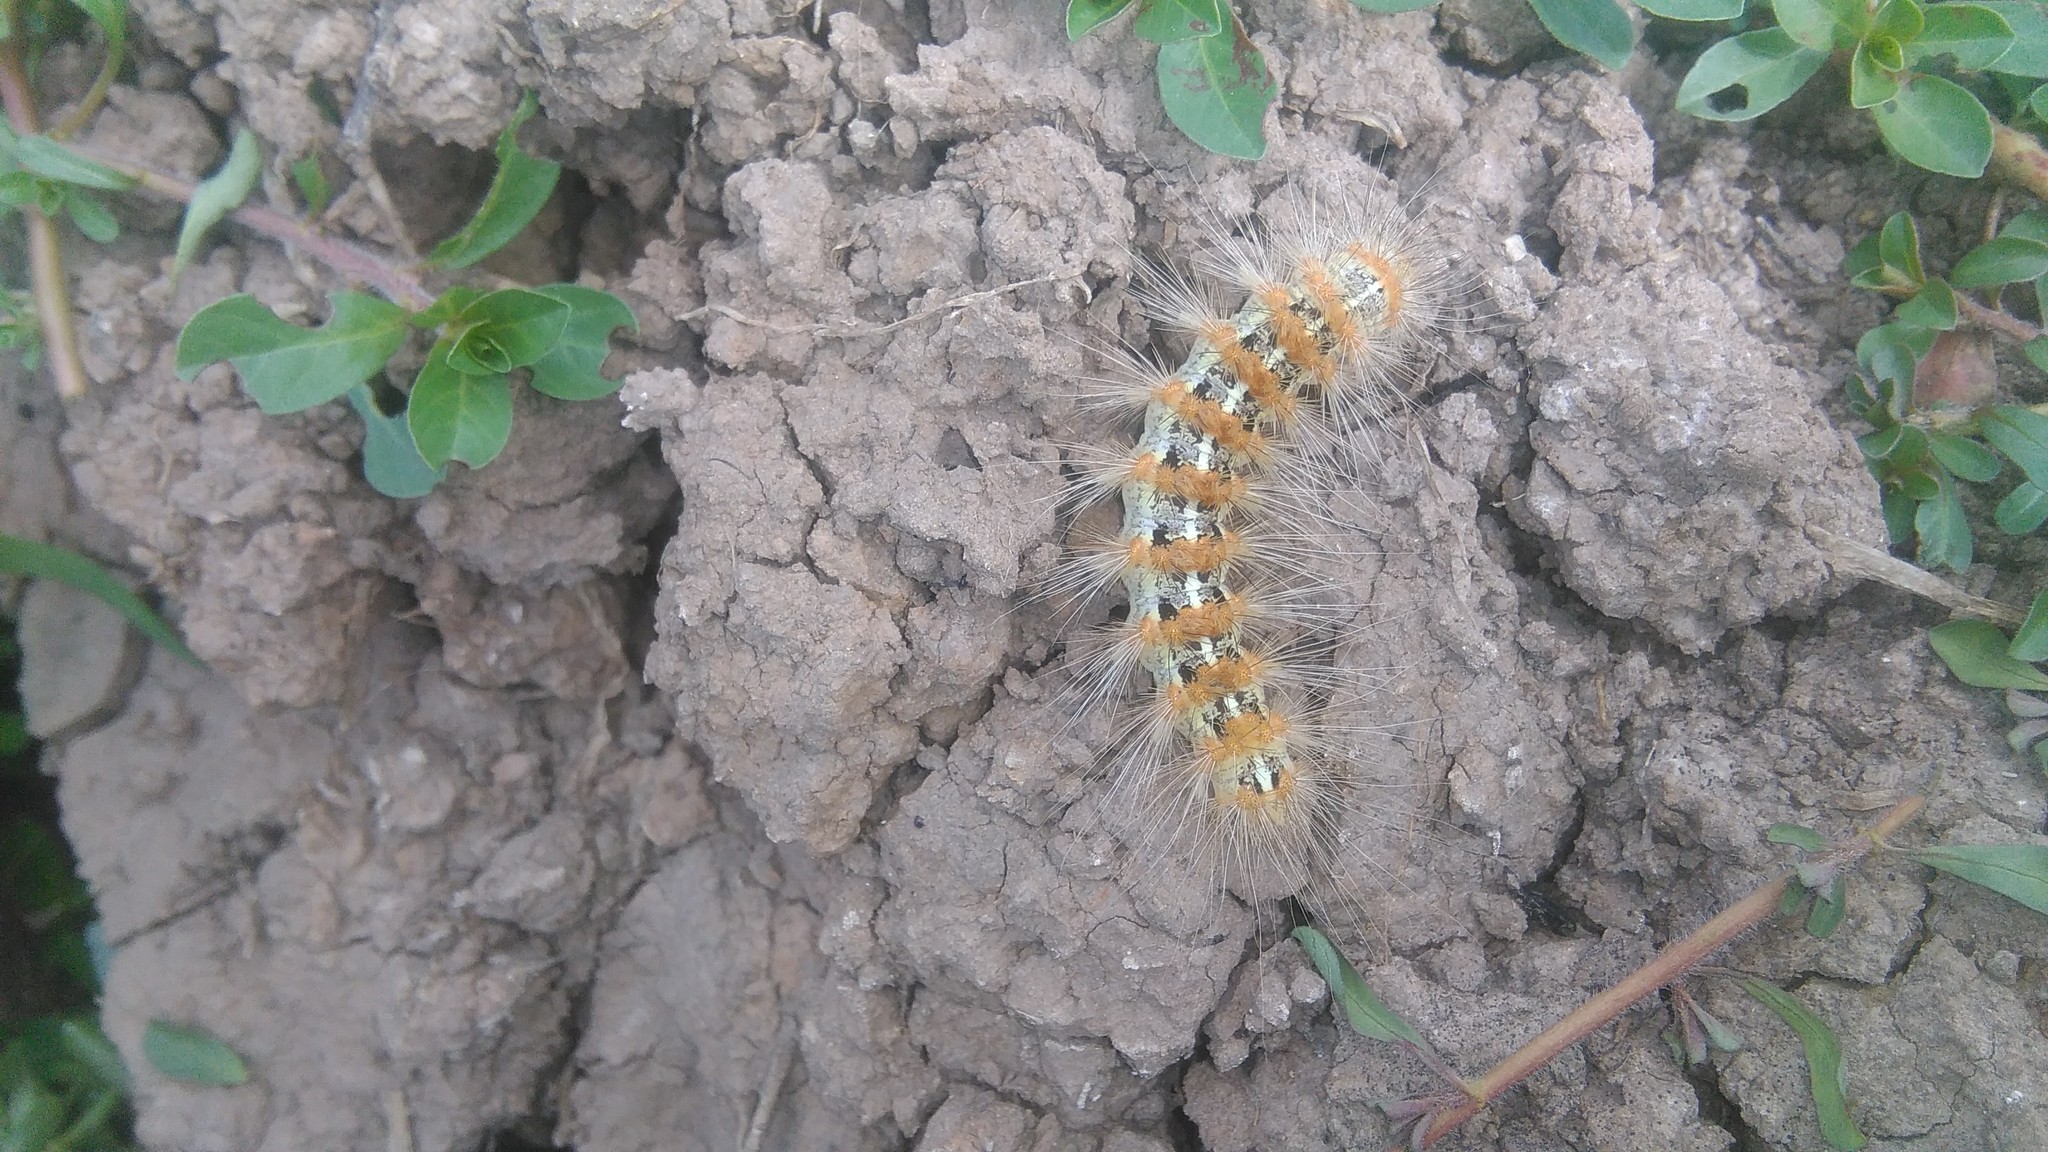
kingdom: Animalia
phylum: Arthropoda
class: Insecta
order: Lepidoptera
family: Erebidae
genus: Paracles
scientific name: Paracles deserticola
